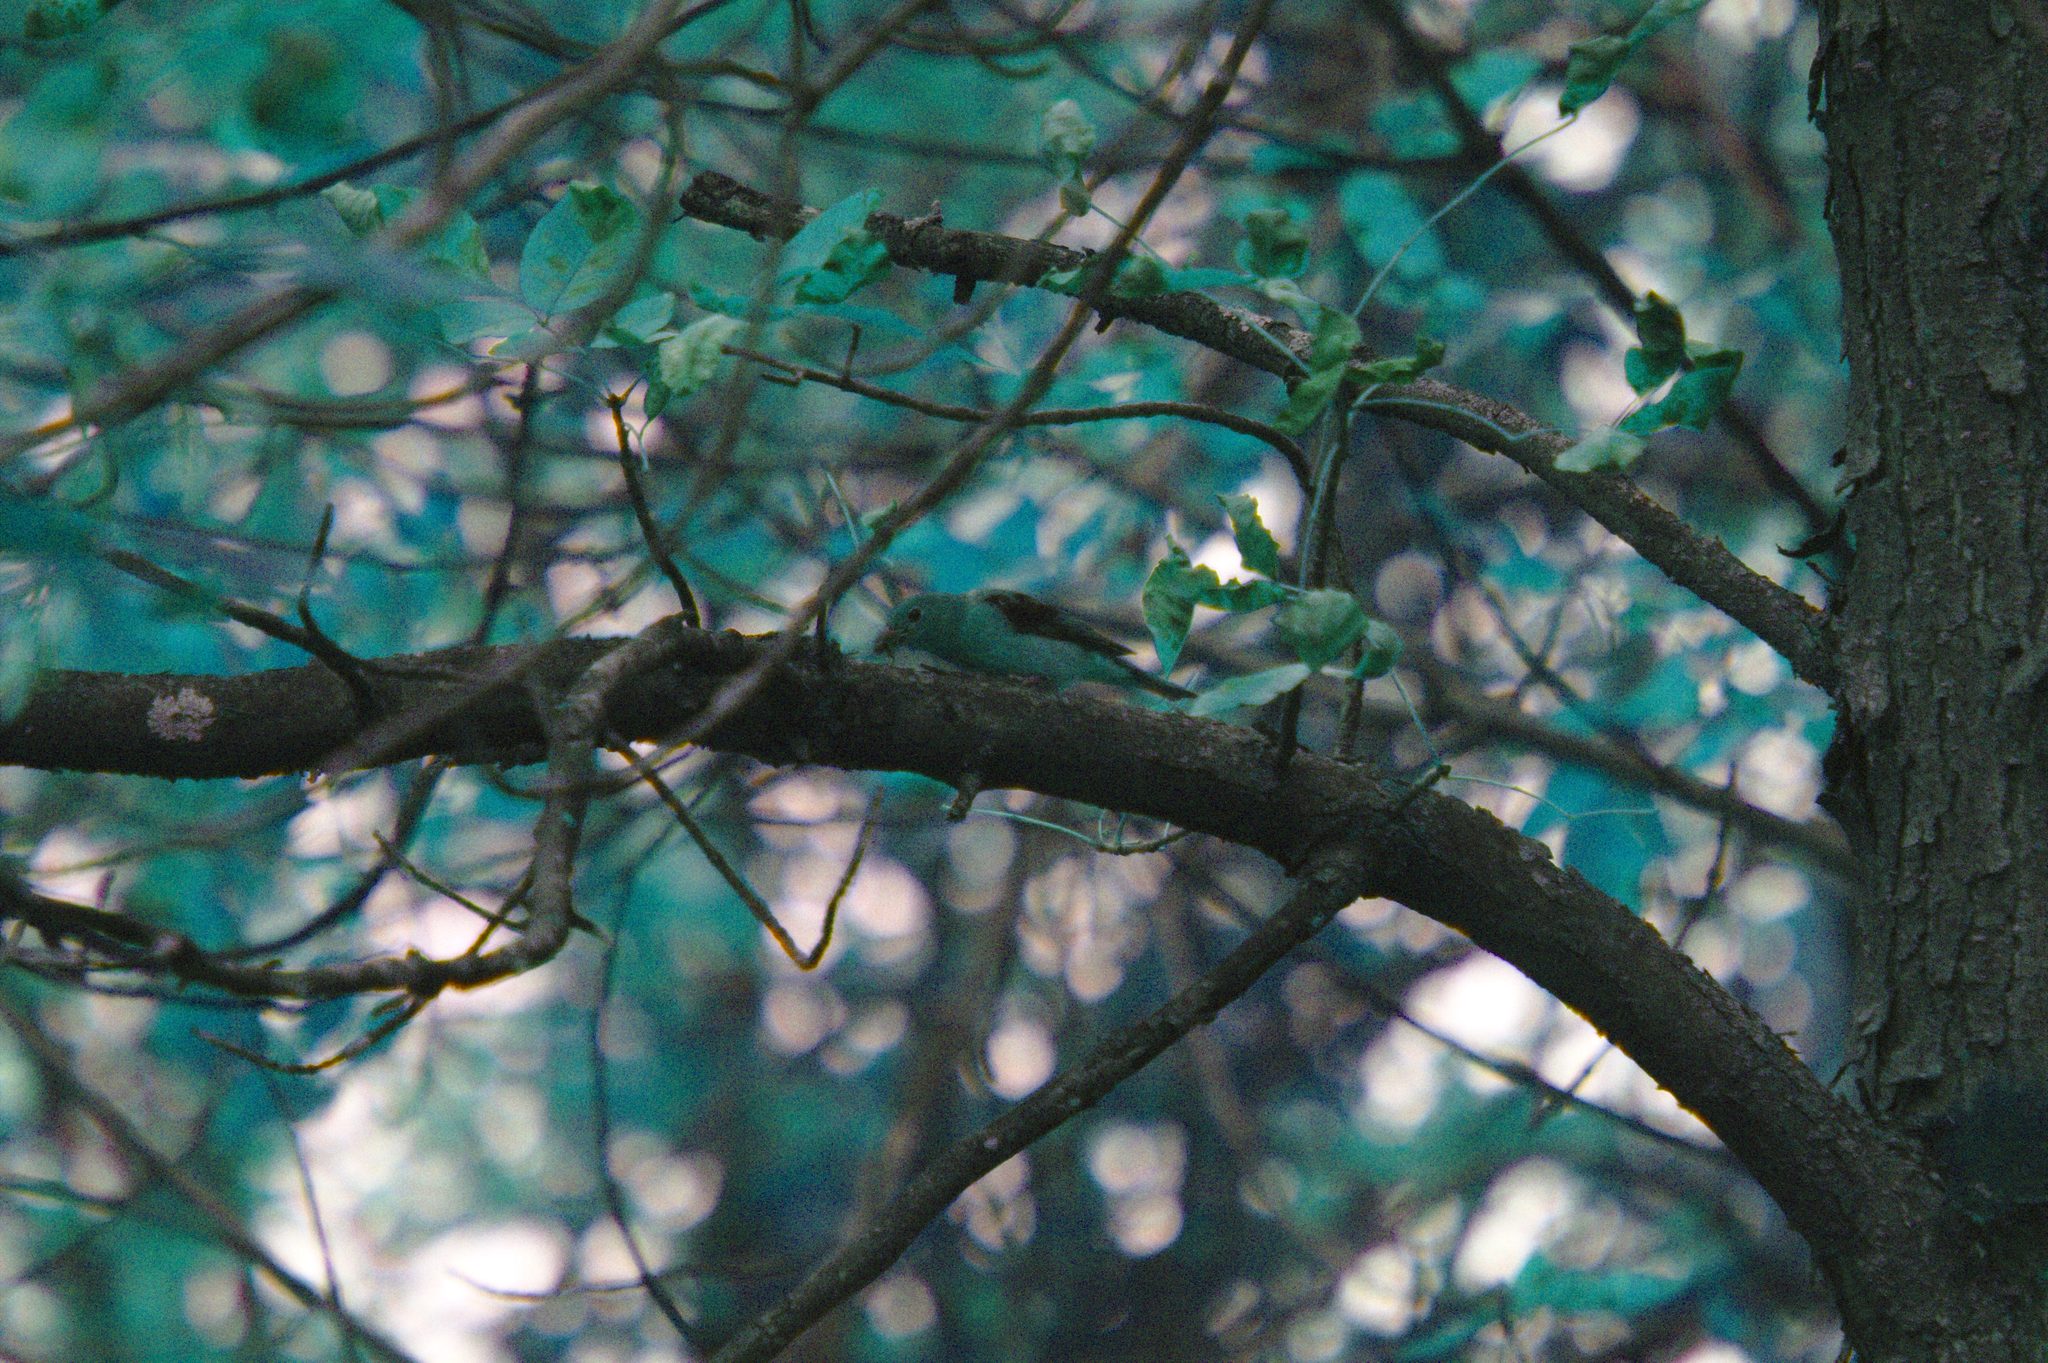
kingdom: Animalia
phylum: Chordata
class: Aves
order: Passeriformes
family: Cardinalidae
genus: Piranga
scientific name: Piranga olivacea
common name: Scarlet tanager
